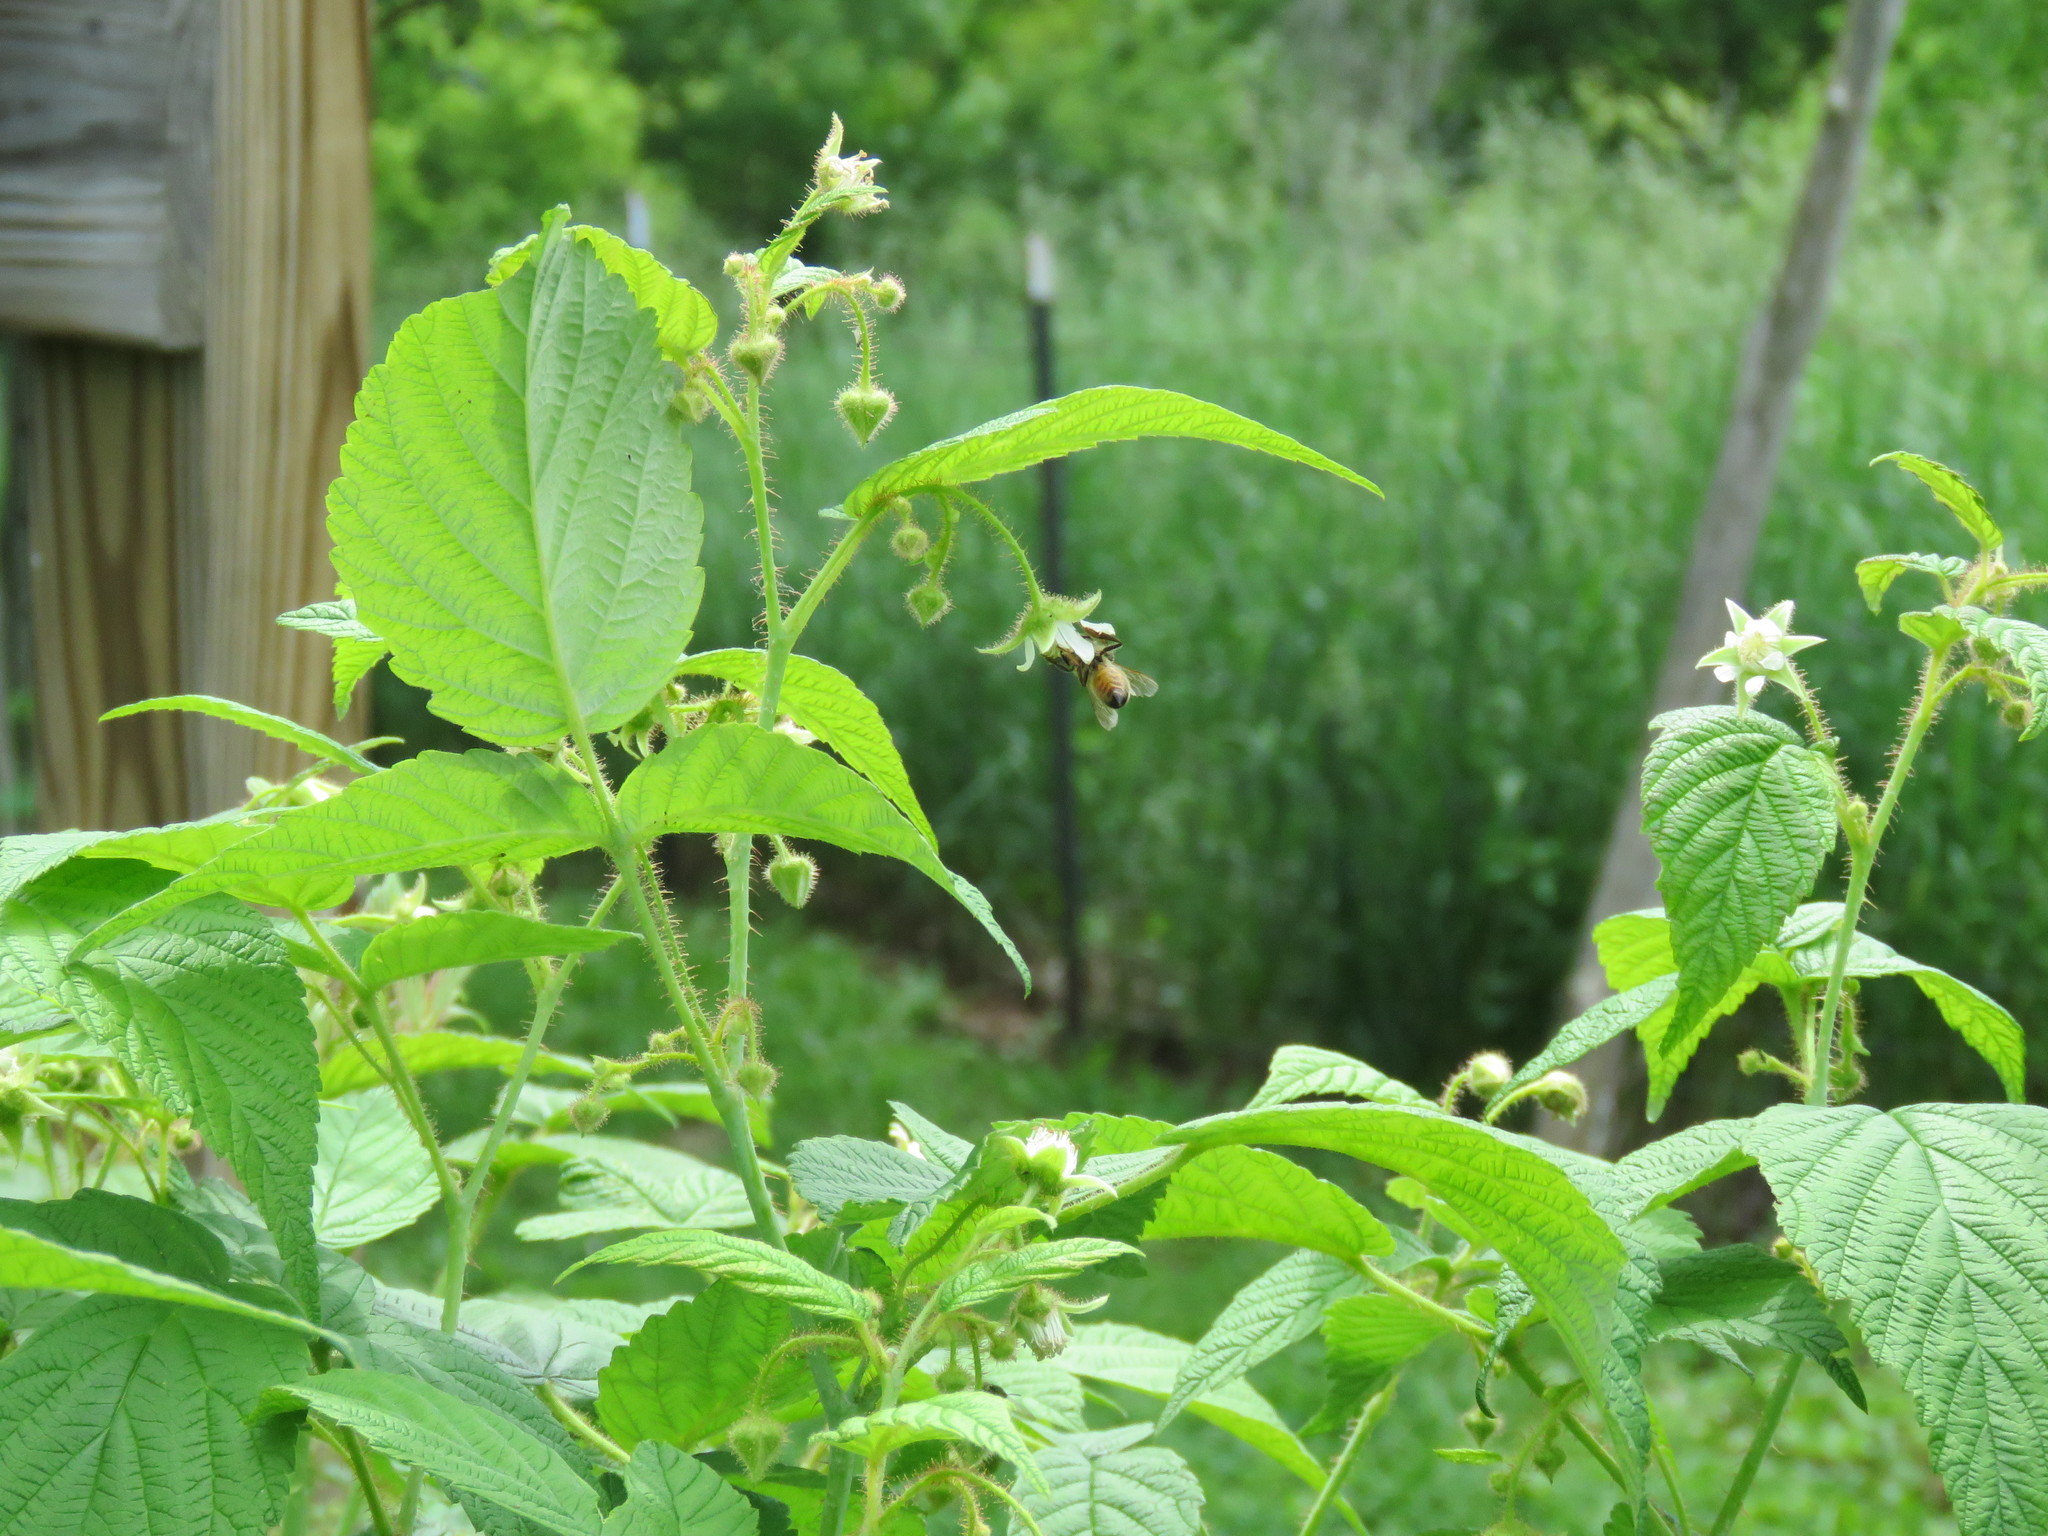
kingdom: Animalia
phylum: Arthropoda
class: Insecta
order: Hymenoptera
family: Apidae
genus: Apis
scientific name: Apis mellifera
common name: Honey bee
